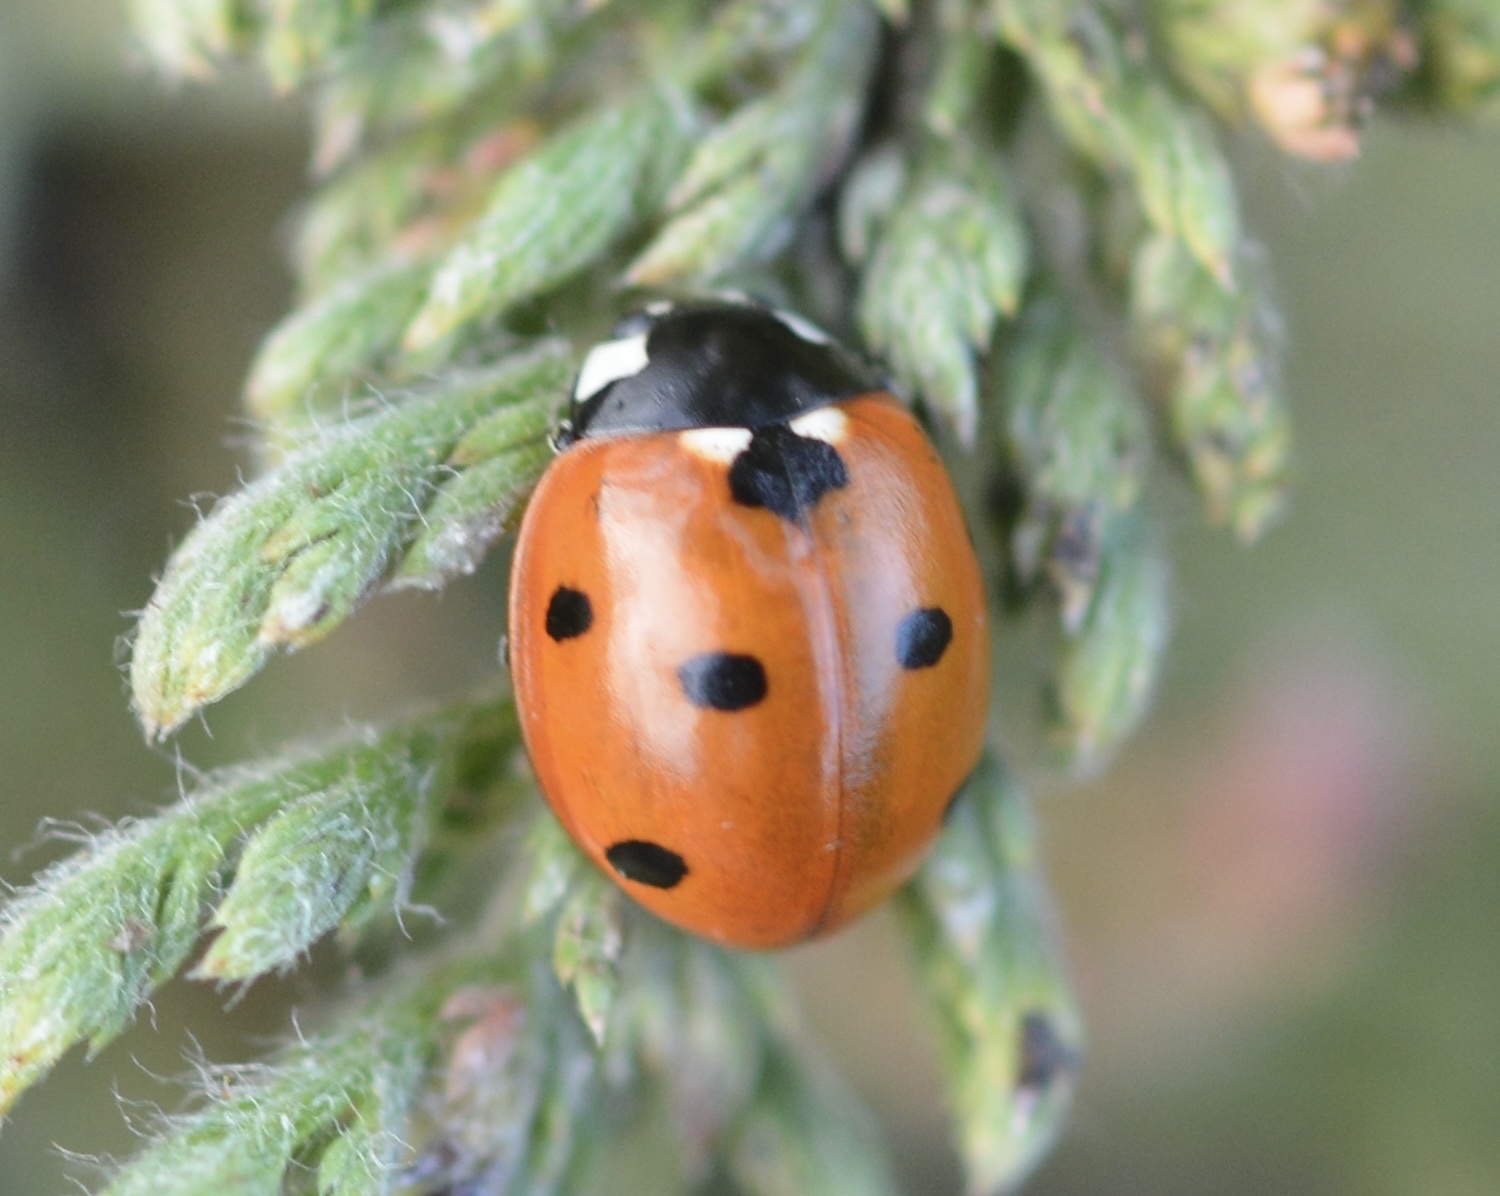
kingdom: Animalia
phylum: Arthropoda
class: Insecta
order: Coleoptera
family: Coccinellidae
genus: Coccinella
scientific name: Coccinella septempunctata
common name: Sevenspotted lady beetle
